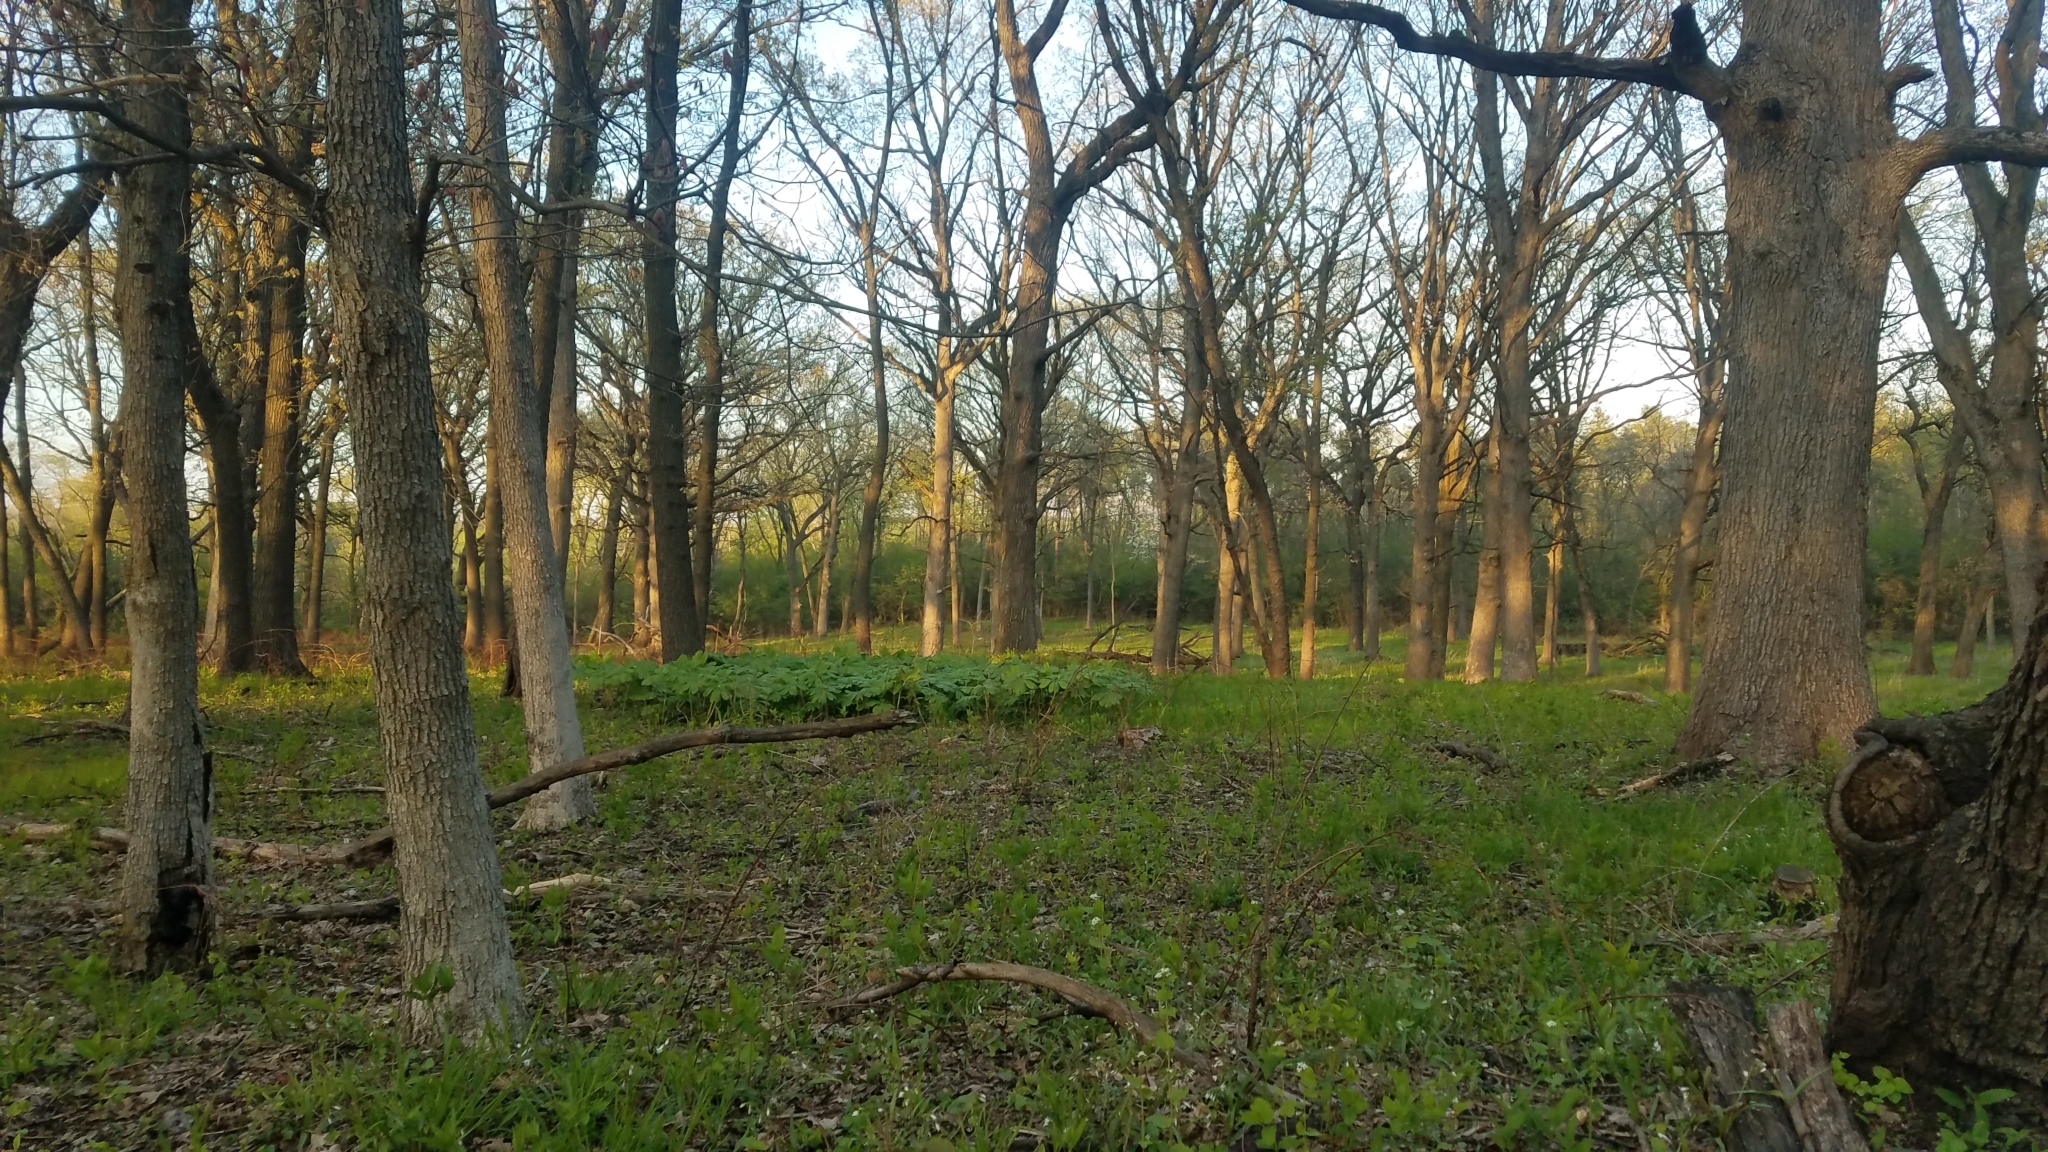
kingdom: Plantae
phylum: Tracheophyta
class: Magnoliopsida
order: Ranunculales
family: Berberidaceae
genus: Podophyllum
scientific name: Podophyllum peltatum
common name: Wild mandrake
